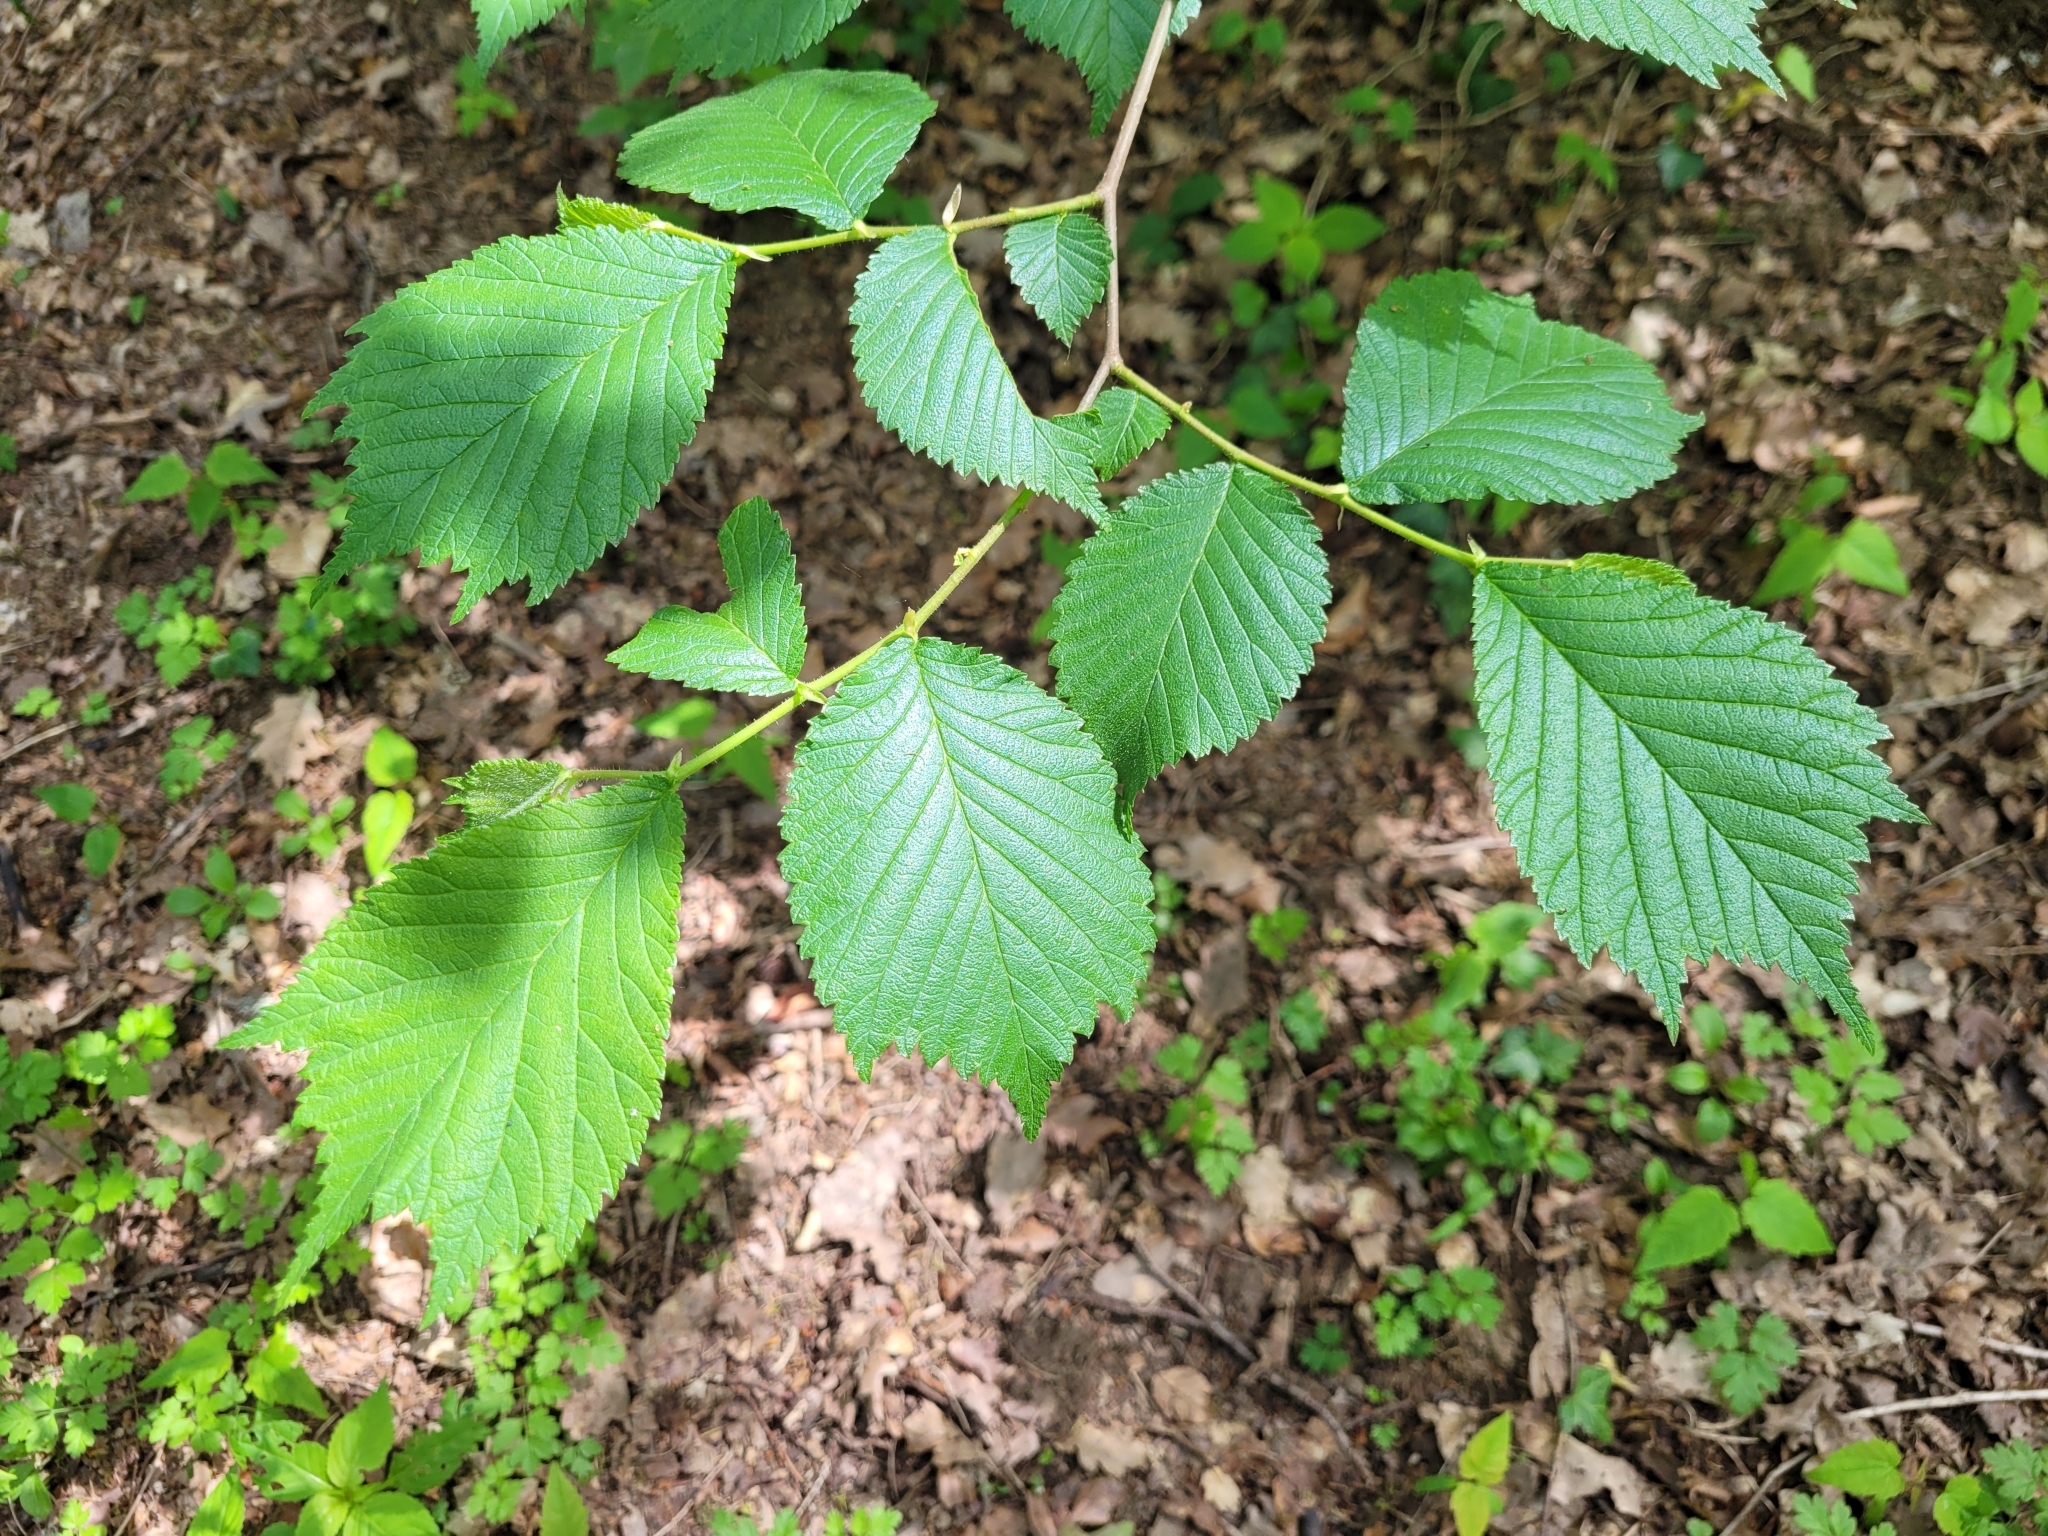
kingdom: Plantae
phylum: Tracheophyta
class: Magnoliopsida
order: Rosales
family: Ulmaceae
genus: Ulmus
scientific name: Ulmus glabra
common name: Wych elm
